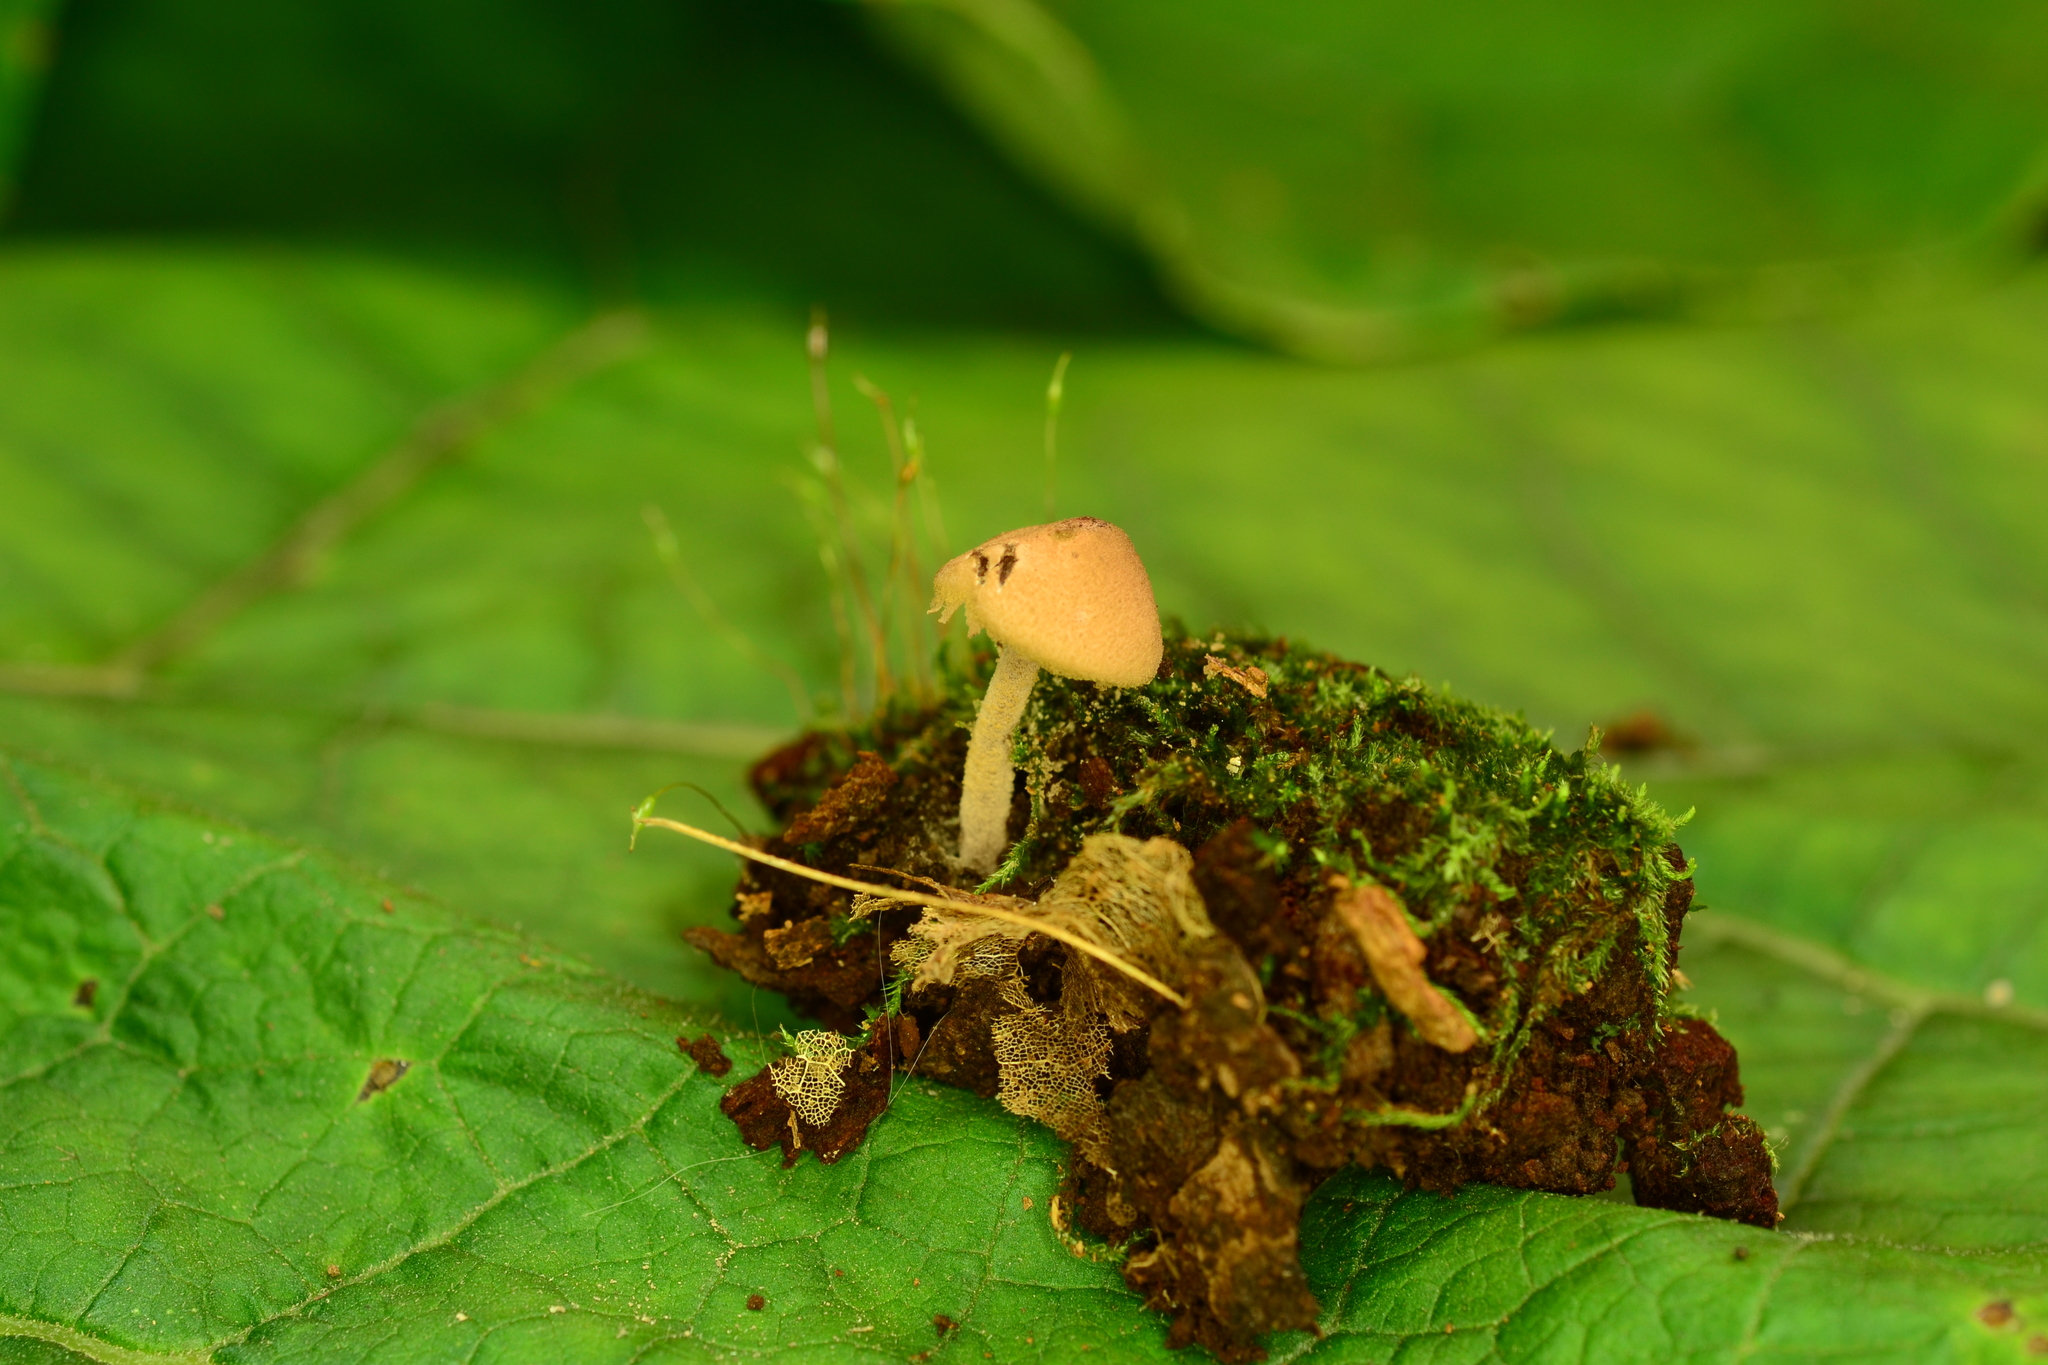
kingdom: Fungi
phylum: Basidiomycota
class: Agaricomycetes
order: Agaricales
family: Agaricaceae
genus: Melanophyllum
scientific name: Melanophyllum haematospermum
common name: Redspored dapperling
